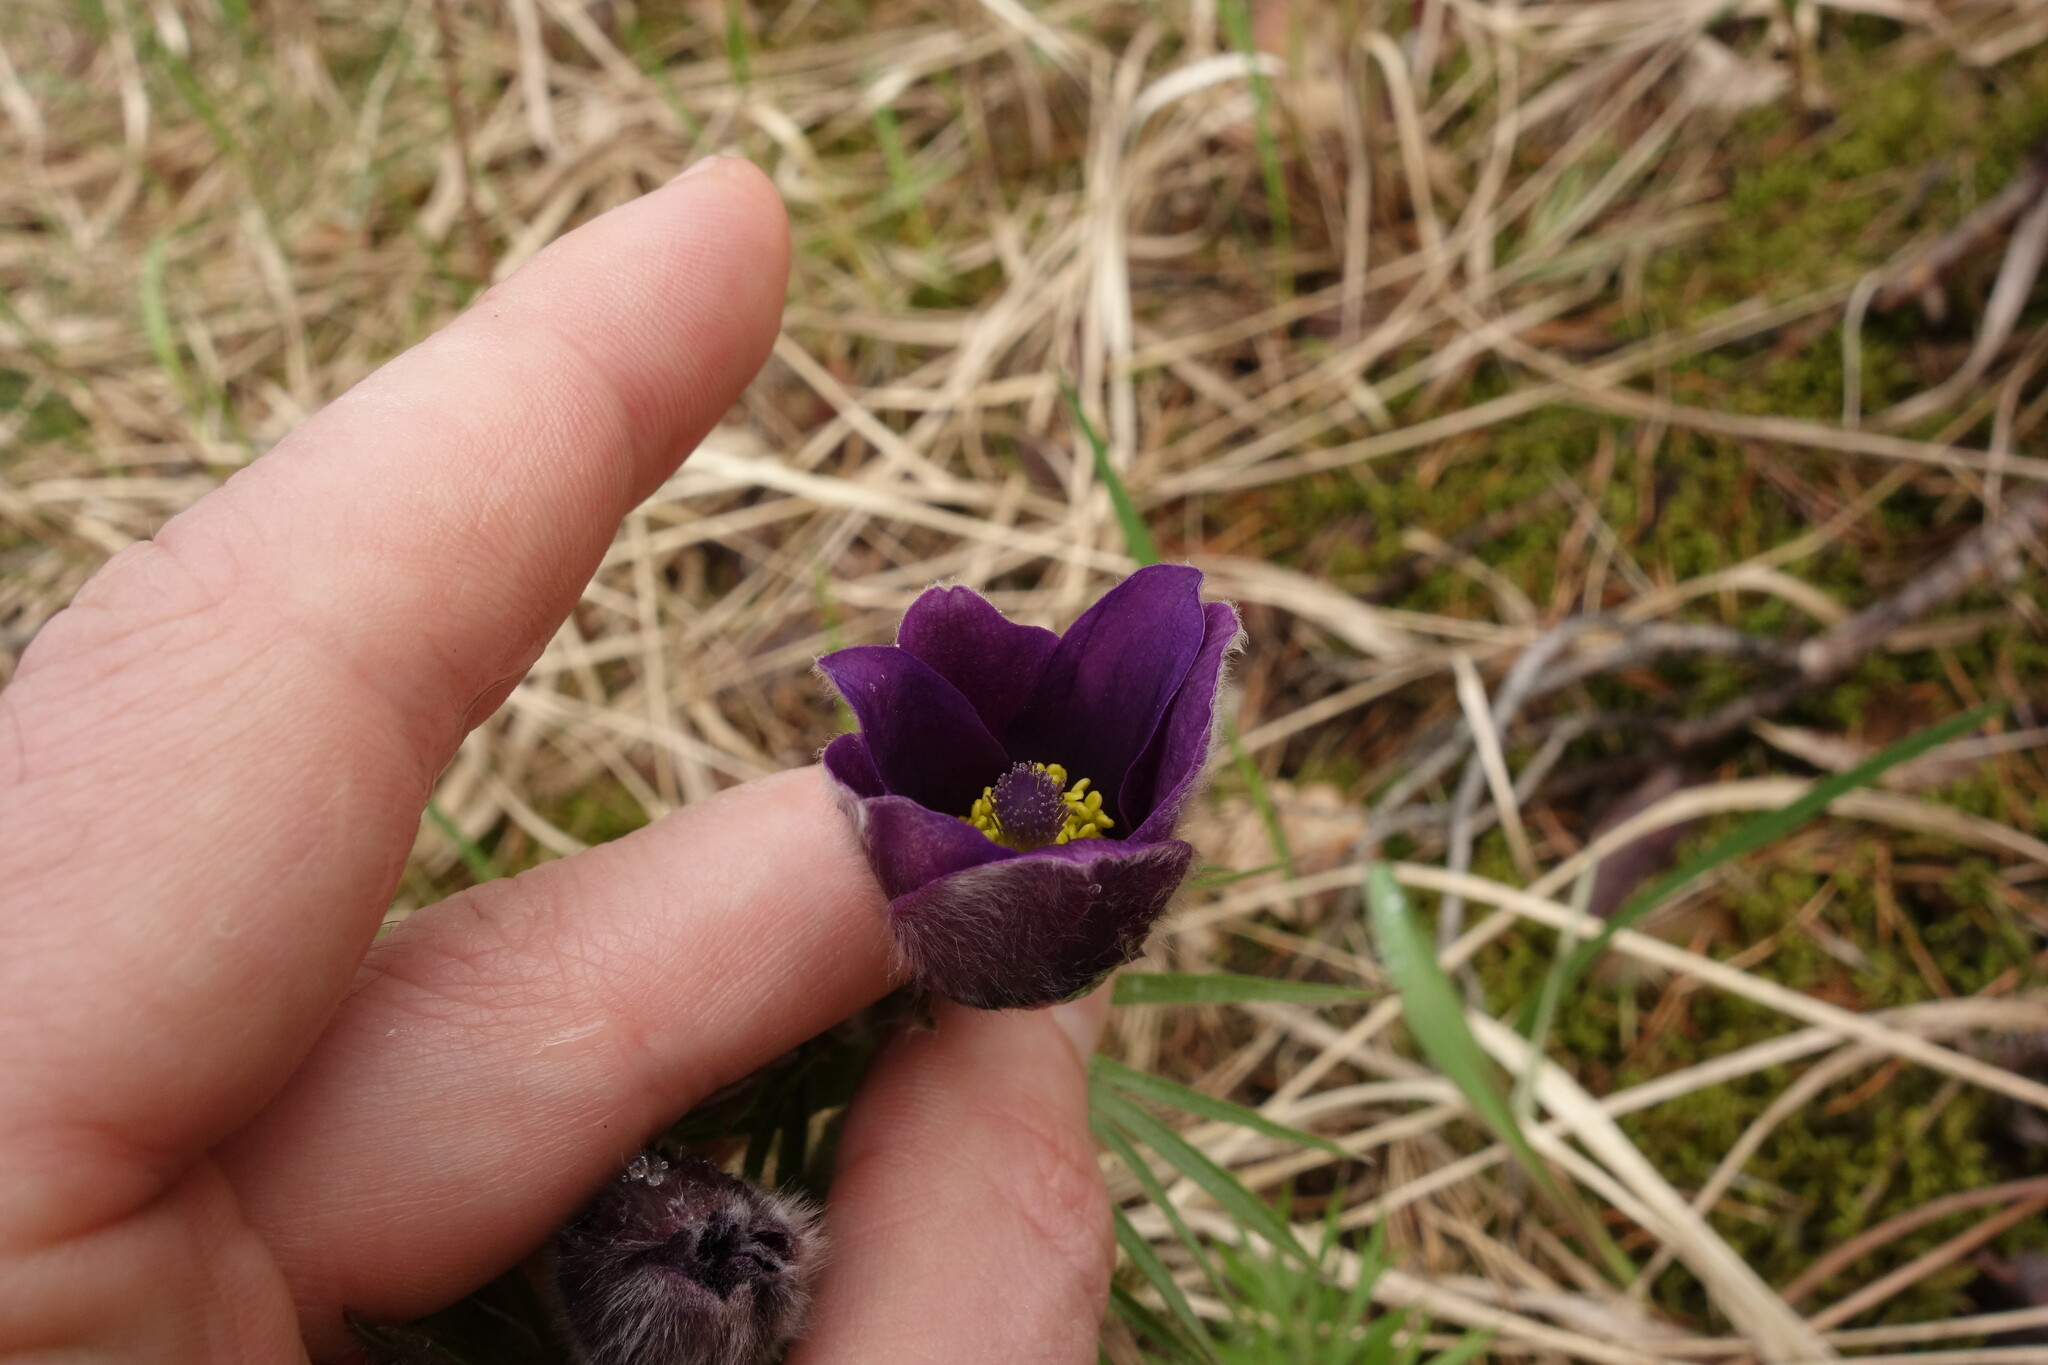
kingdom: Plantae
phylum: Tracheophyta
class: Magnoliopsida
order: Ranunculales
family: Ranunculaceae
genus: Pulsatilla
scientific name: Pulsatilla wolfgangiana
